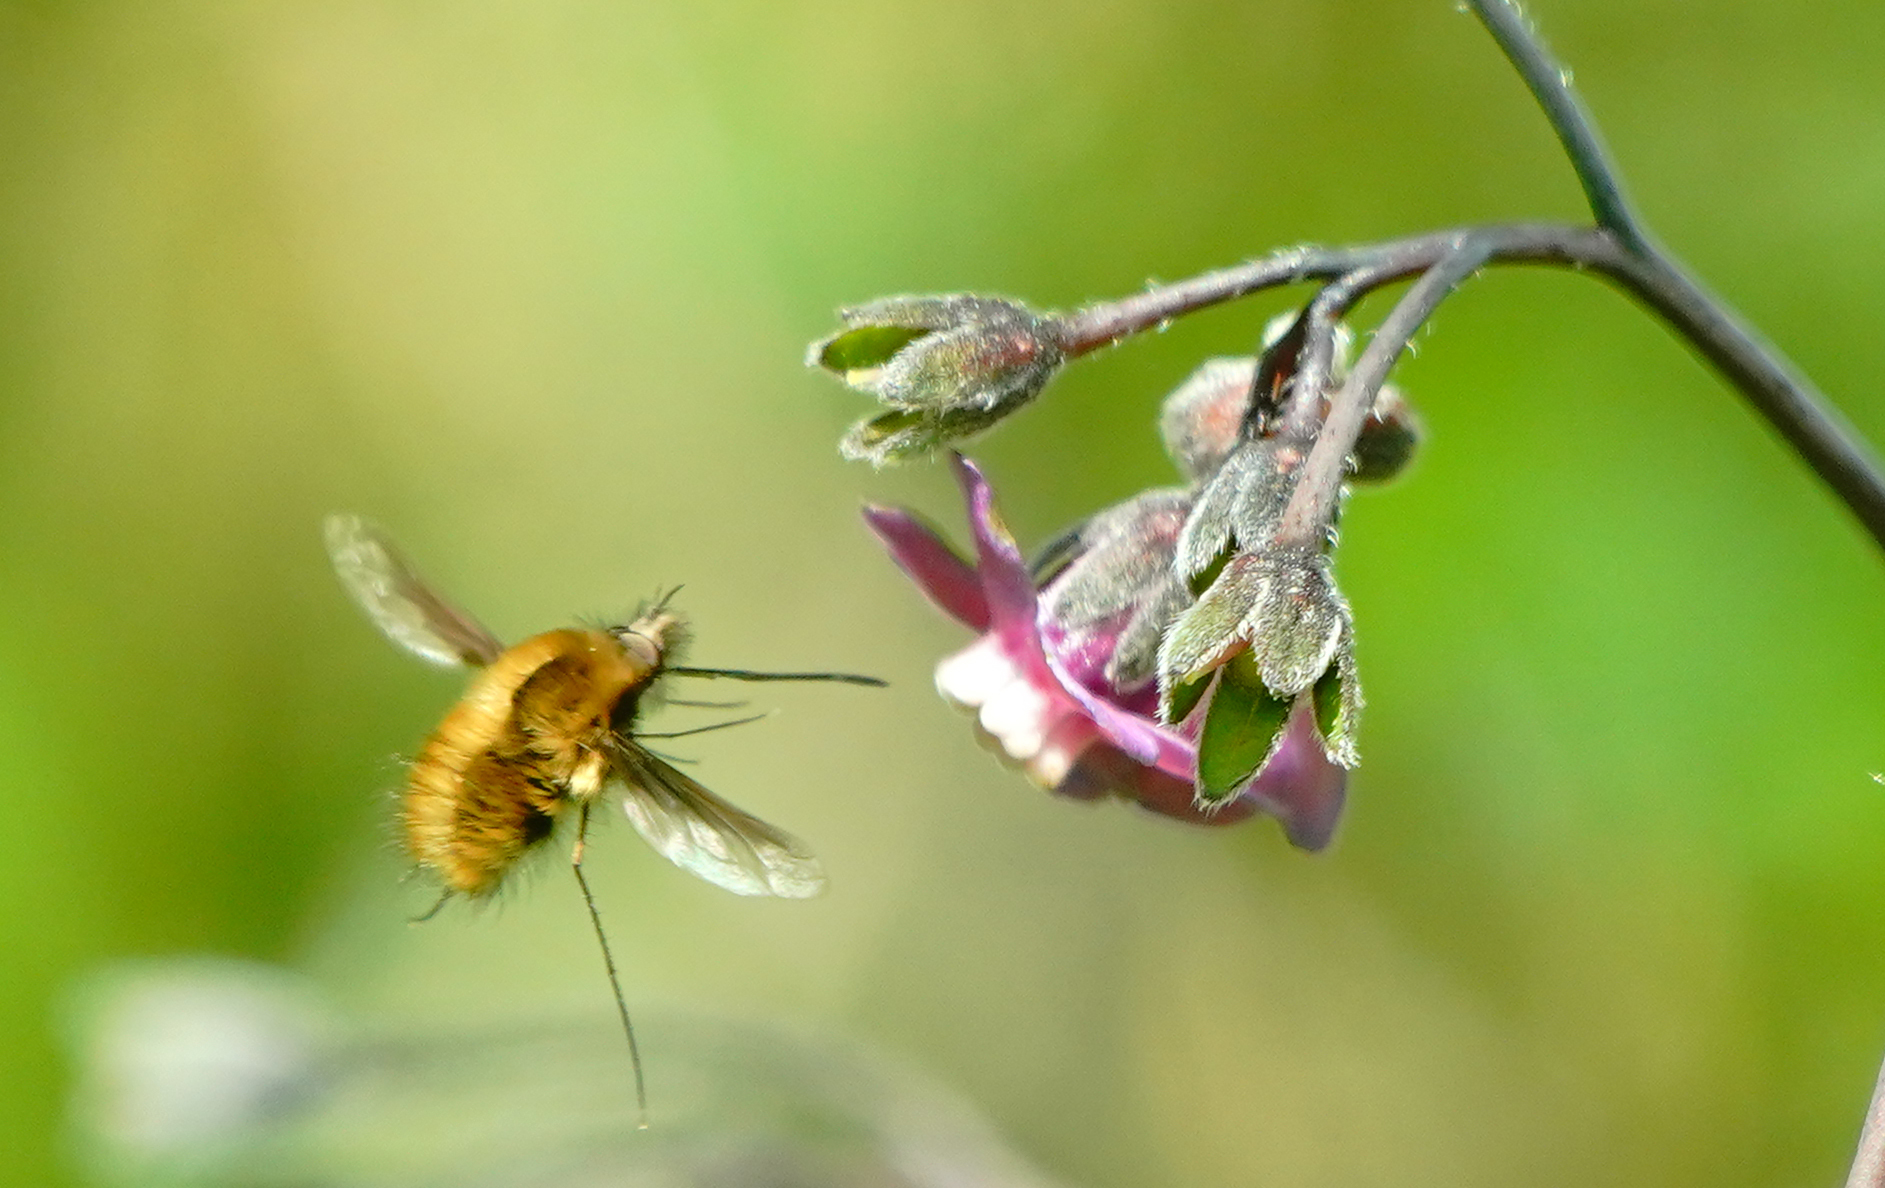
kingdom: Animalia
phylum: Arthropoda
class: Insecta
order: Diptera
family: Bombyliidae
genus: Bombylius
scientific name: Bombylius major
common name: Bee fly
